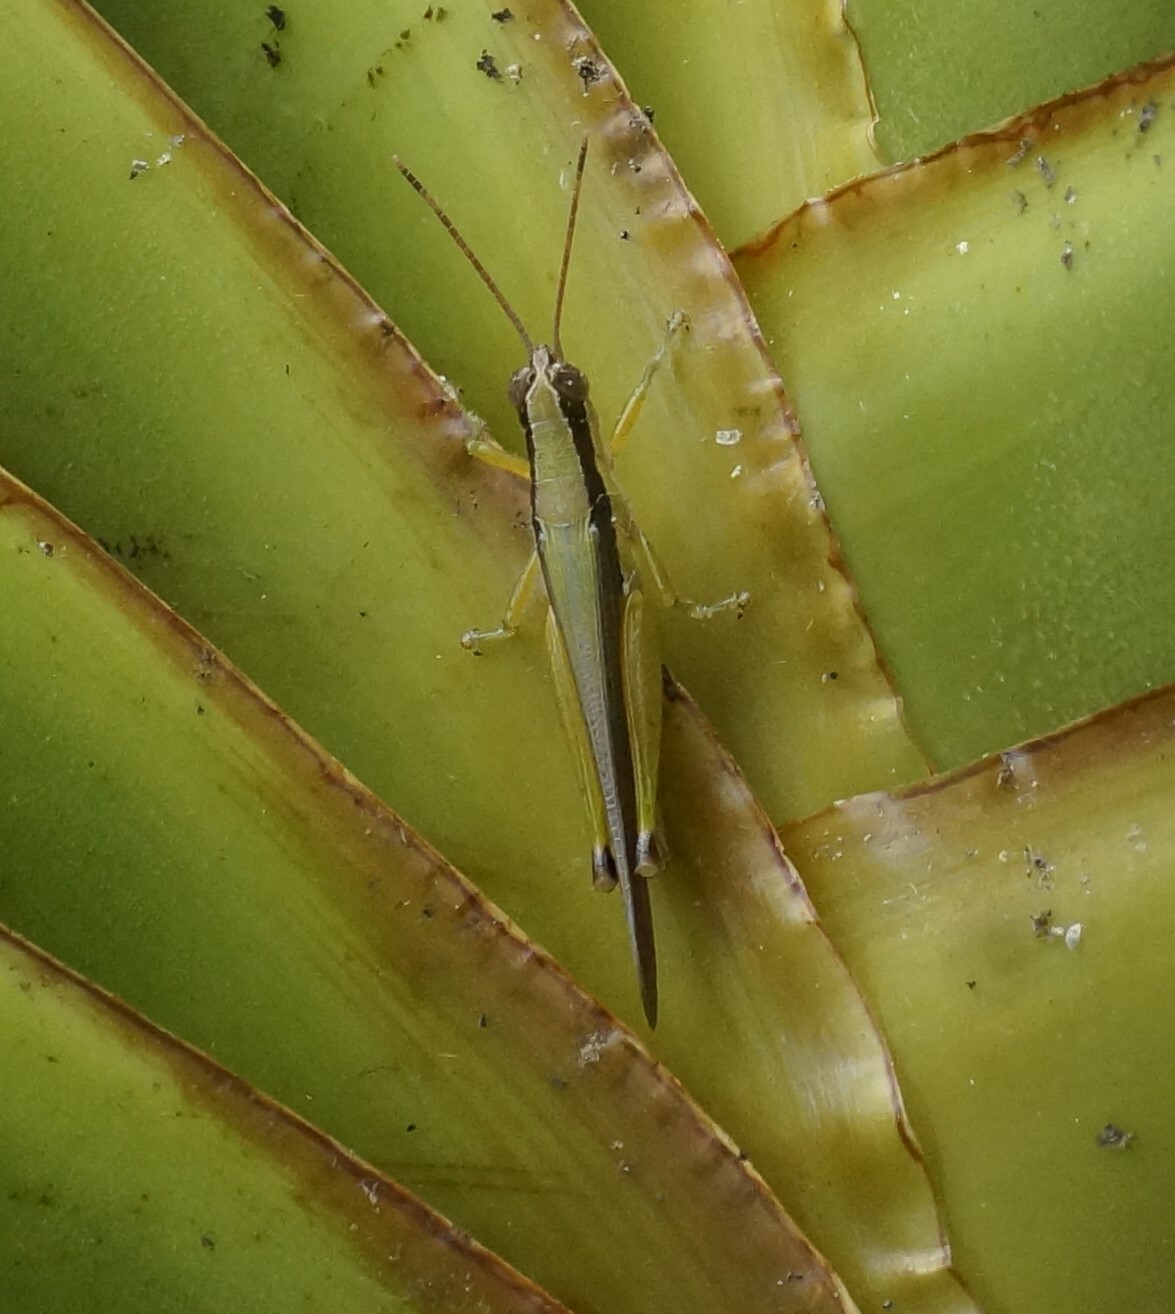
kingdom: Animalia
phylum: Arthropoda
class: Insecta
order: Orthoptera
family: Acrididae
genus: Gesonula
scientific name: Gesonula mundata
